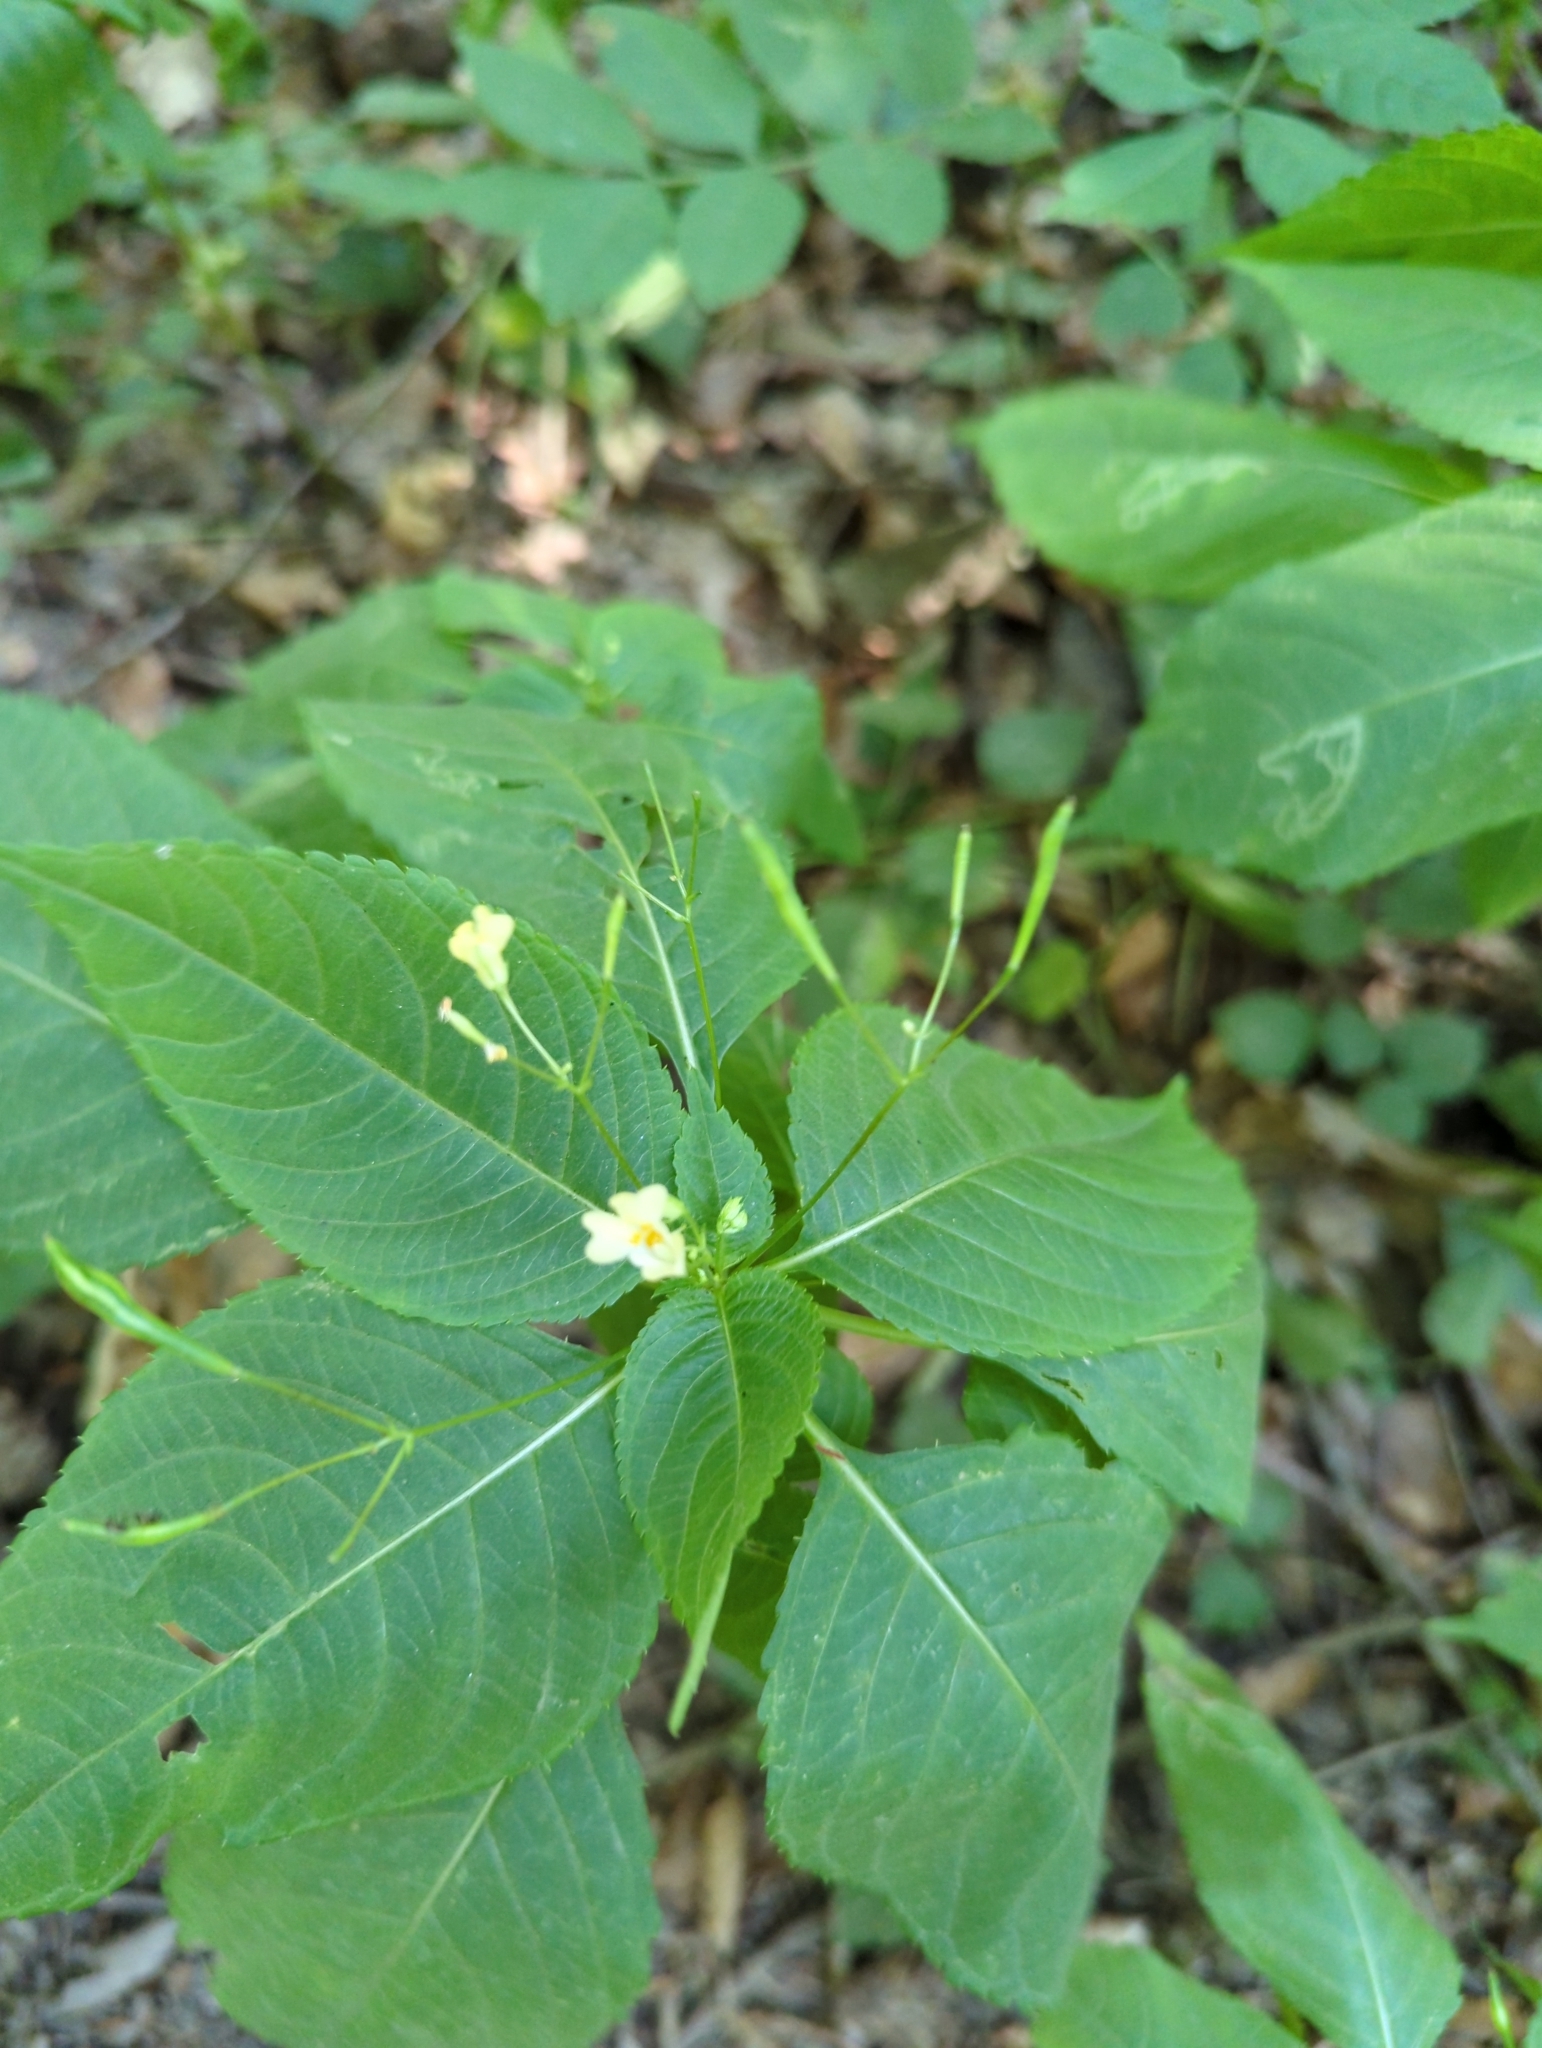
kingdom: Plantae
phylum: Tracheophyta
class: Magnoliopsida
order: Ericales
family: Balsaminaceae
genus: Impatiens
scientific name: Impatiens parviflora
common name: Small balsam
